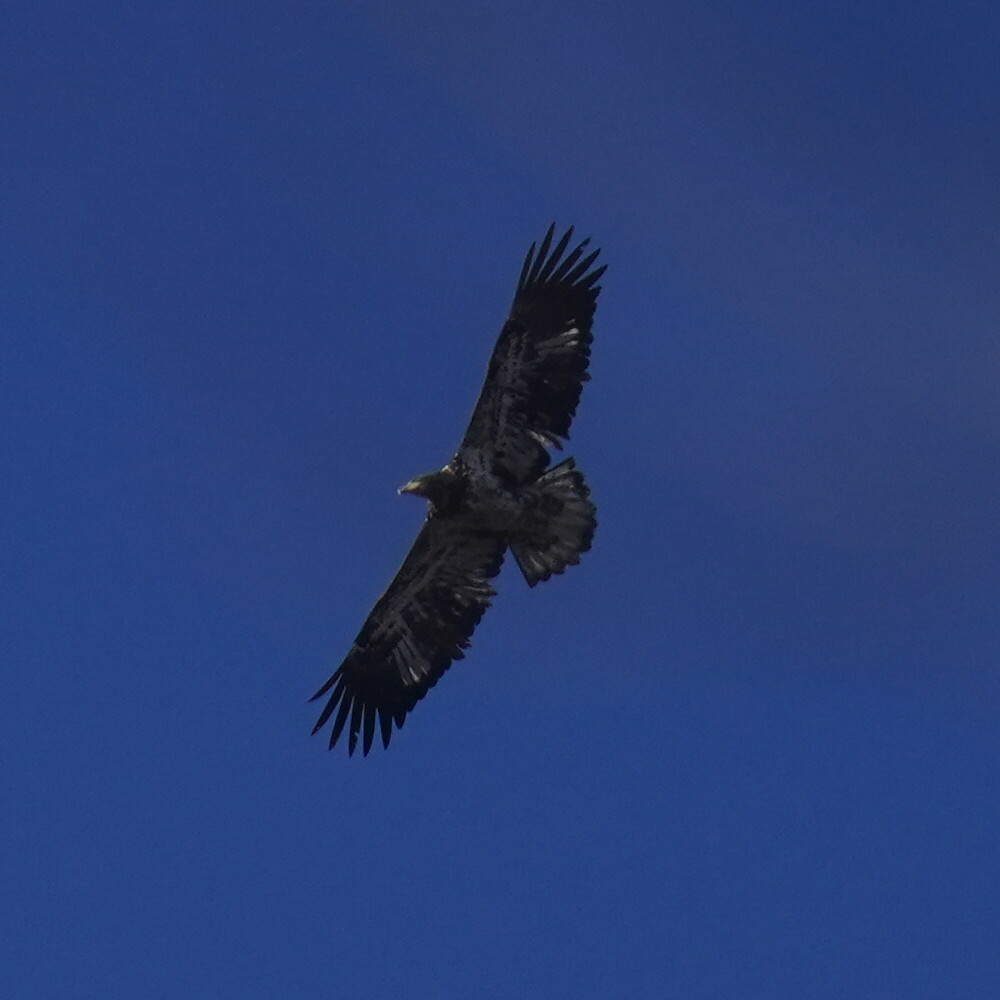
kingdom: Animalia
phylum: Chordata
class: Aves
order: Accipitriformes
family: Accipitridae
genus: Haliaeetus
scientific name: Haliaeetus leucocephalus
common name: Bald eagle
